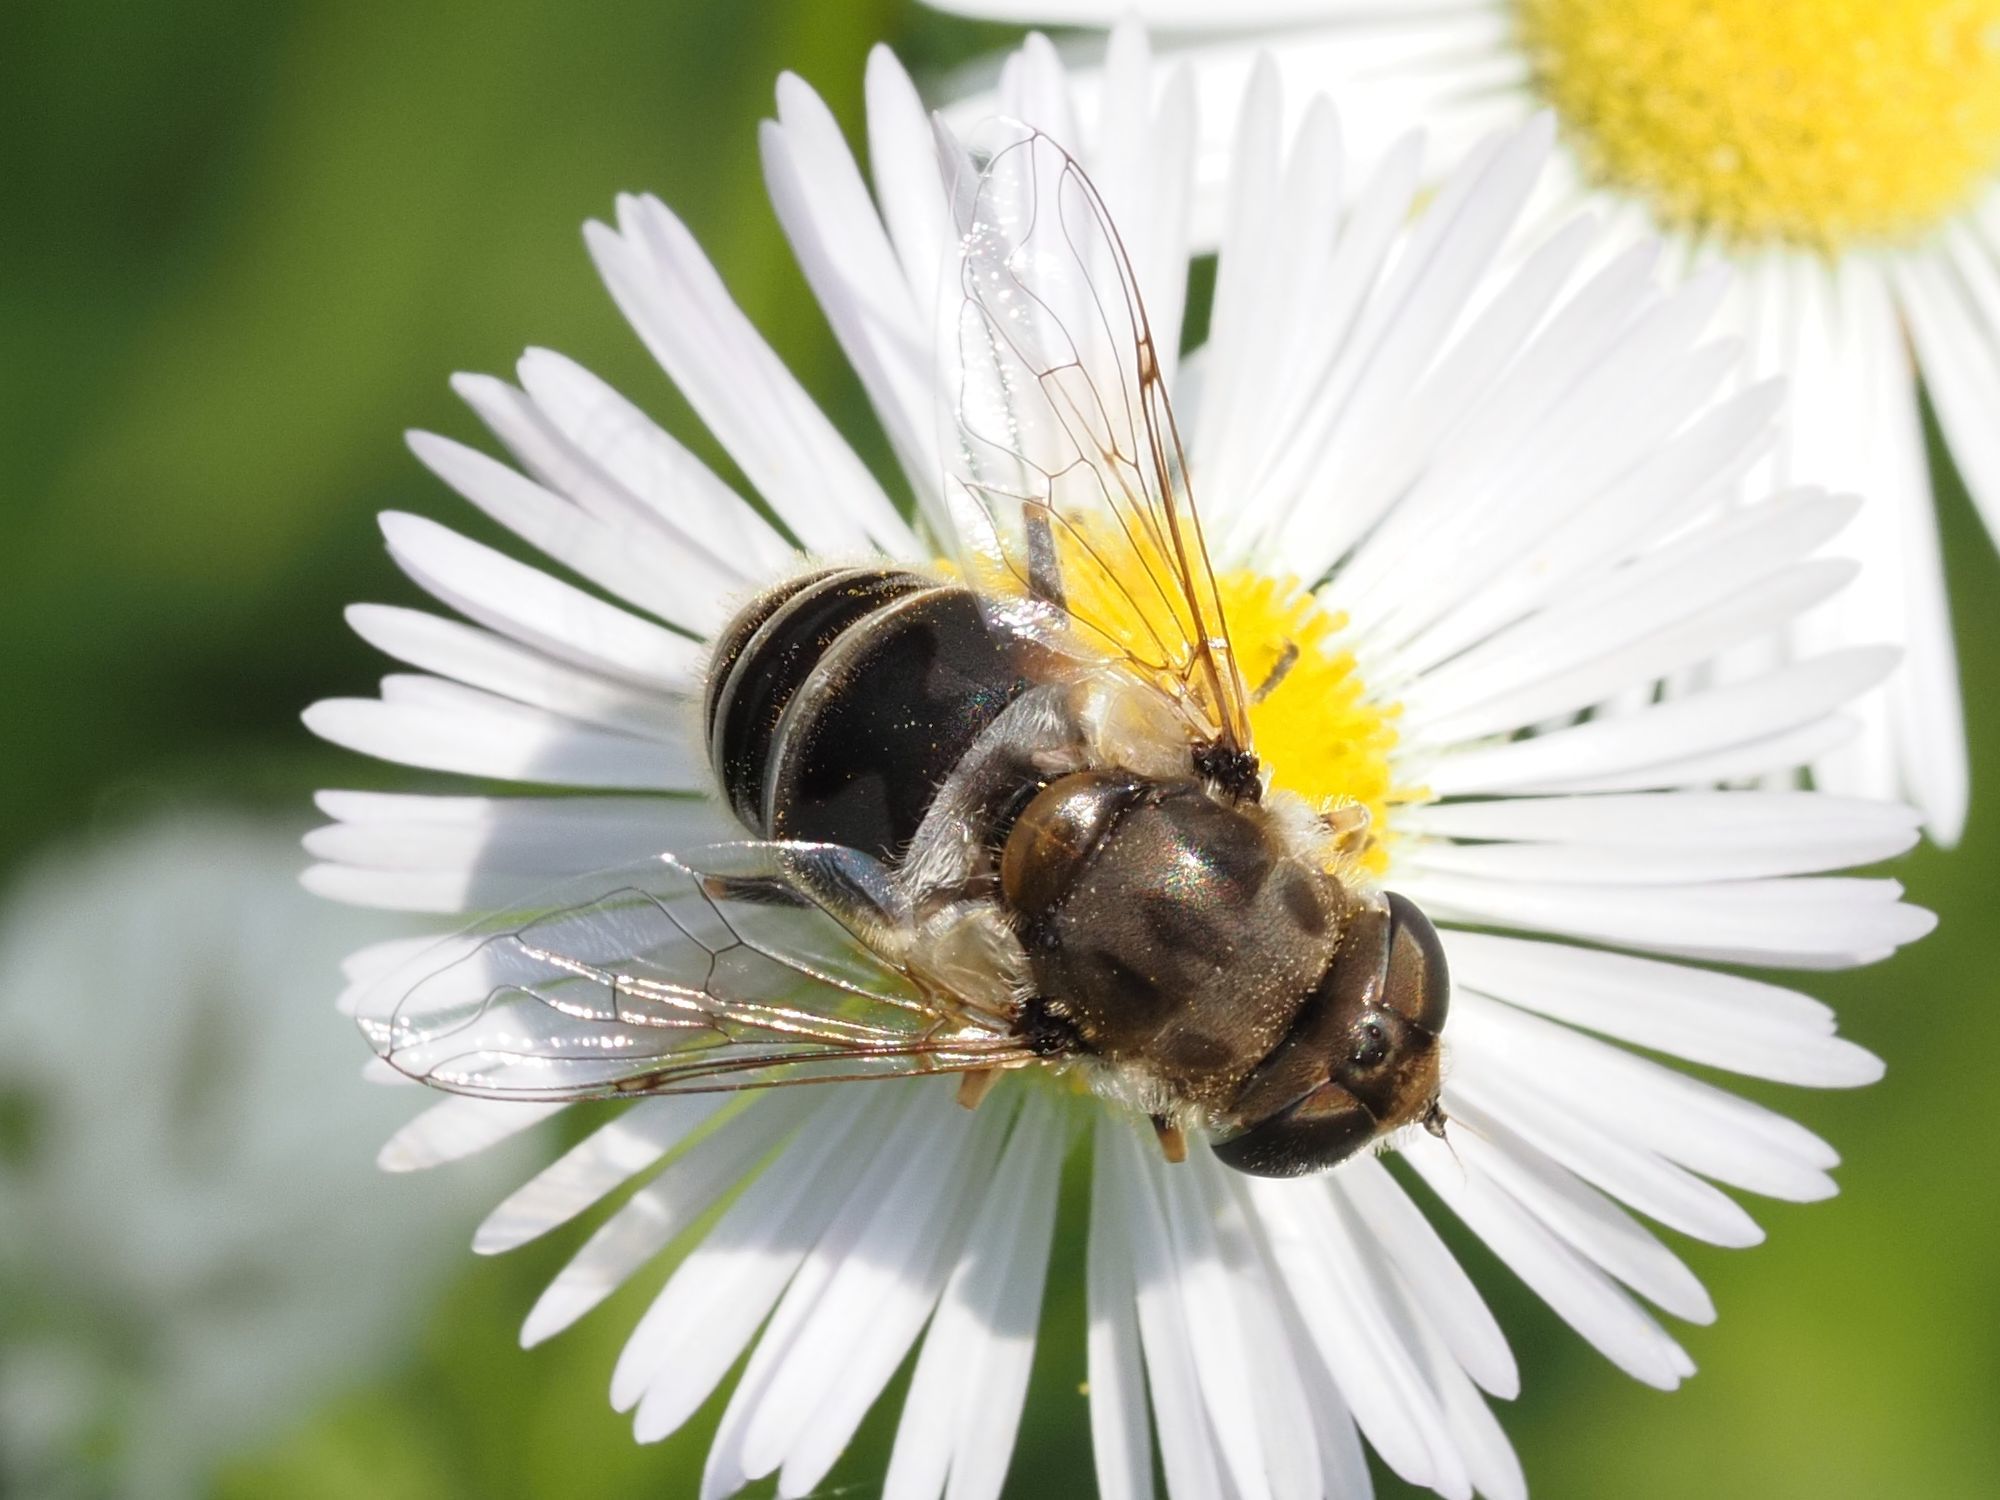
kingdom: Animalia
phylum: Arthropoda
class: Insecta
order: Diptera
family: Syrphidae
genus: Eristalis
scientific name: Eristalis arbustorum
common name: Hover fly
